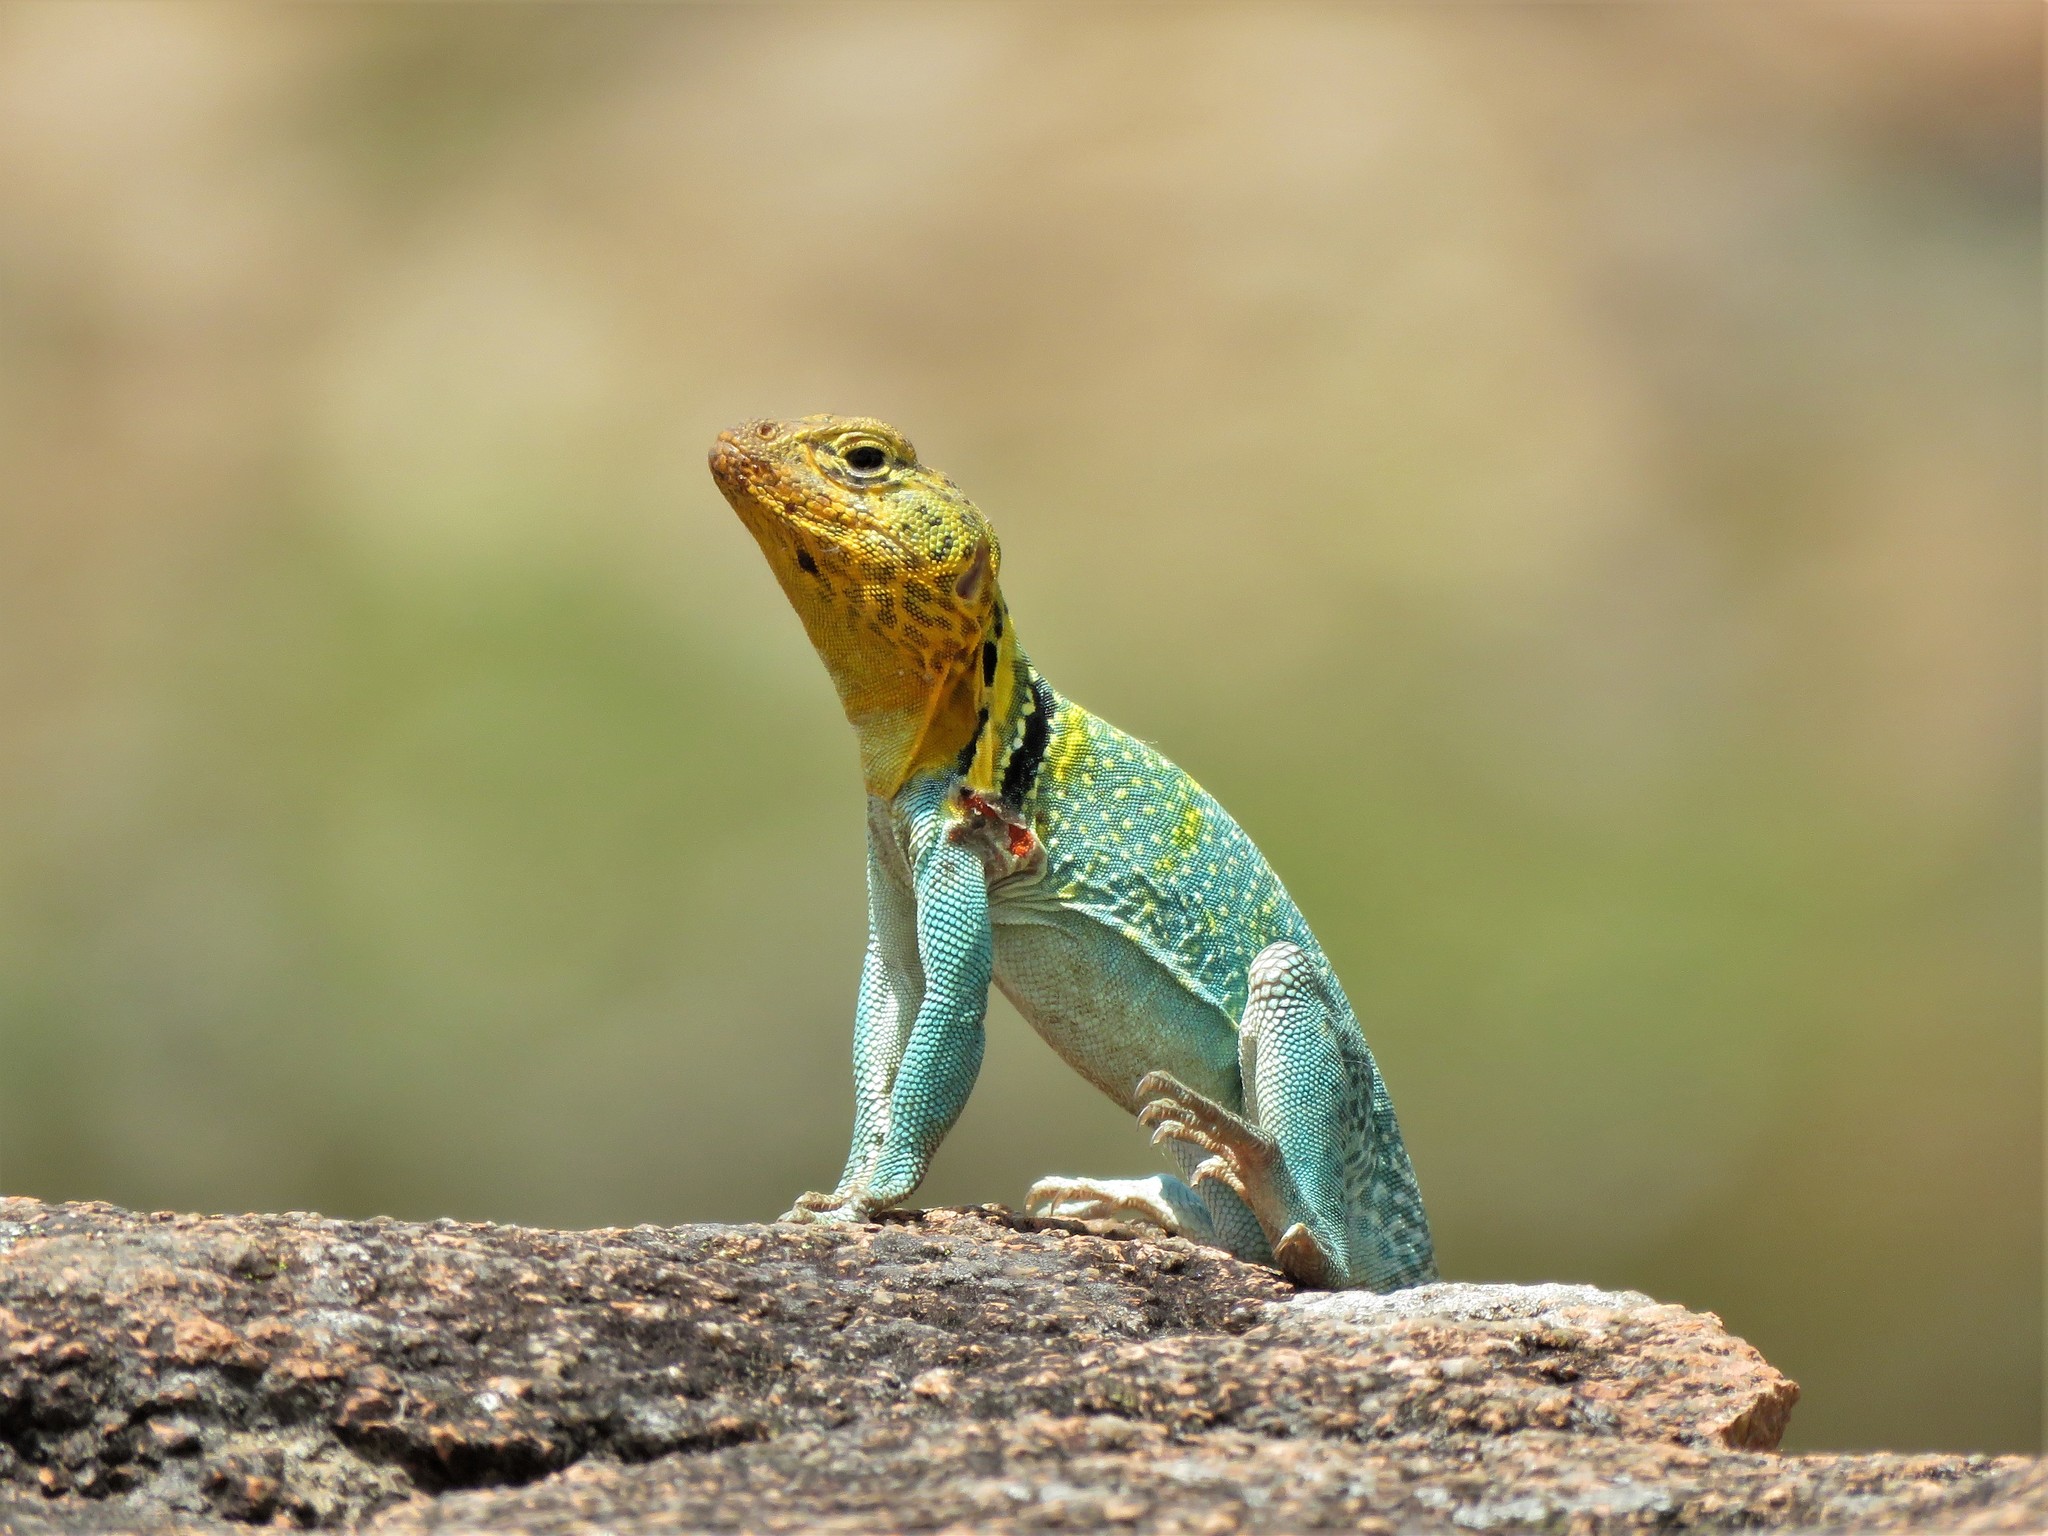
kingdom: Animalia
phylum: Chordata
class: Squamata
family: Crotaphytidae
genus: Crotaphytus
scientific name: Crotaphytus collaris
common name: Collared lizard
